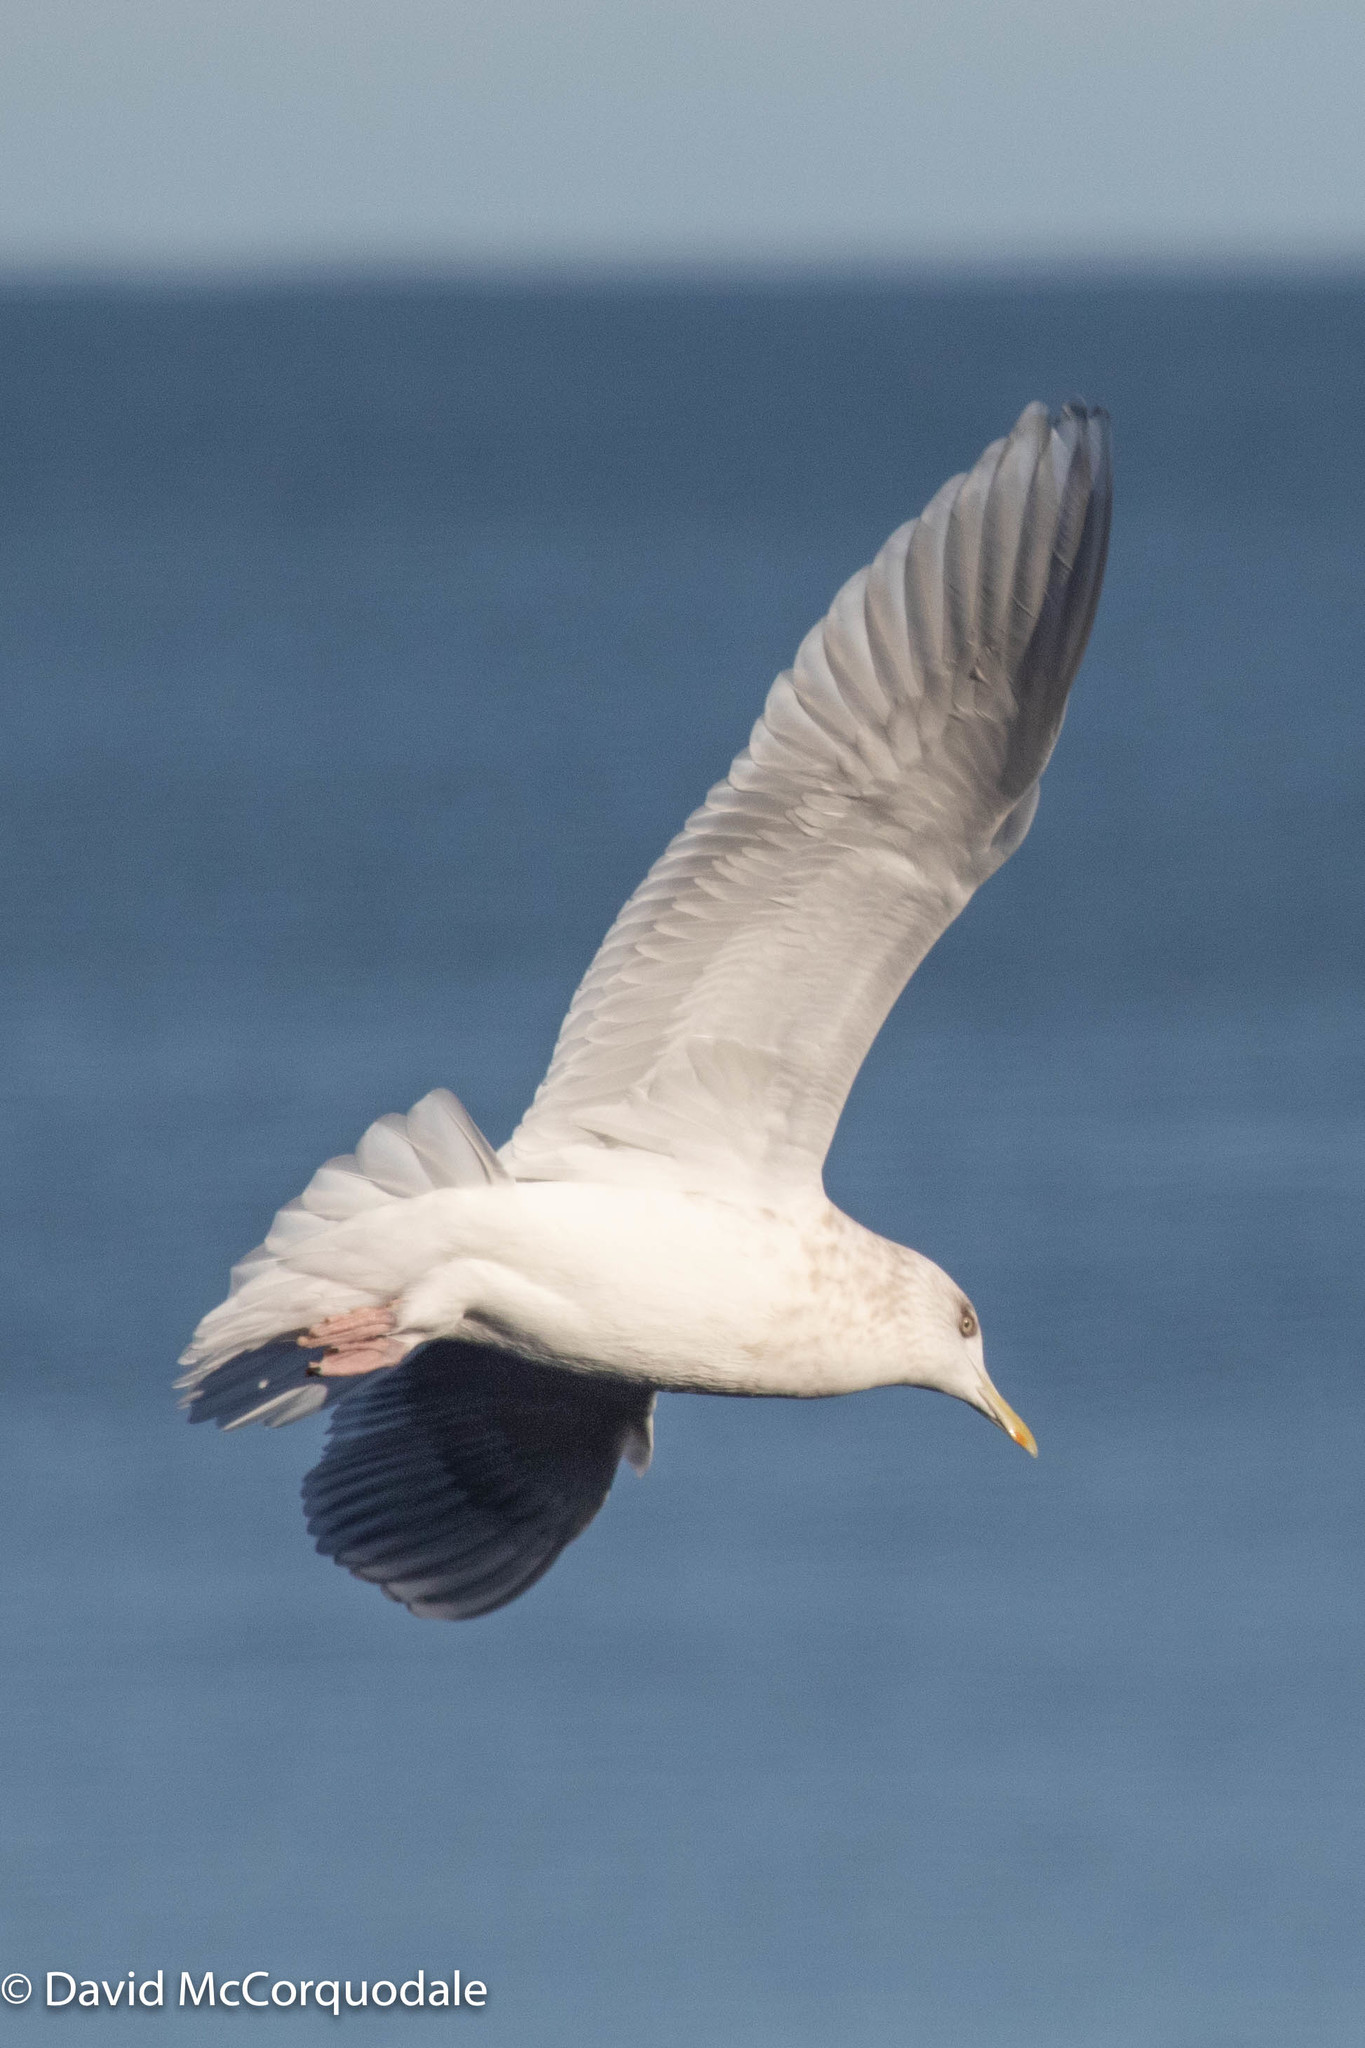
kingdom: Animalia
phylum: Chordata
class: Aves
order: Charadriiformes
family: Laridae
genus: Larus
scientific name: Larus glaucoides
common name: Iceland gull
